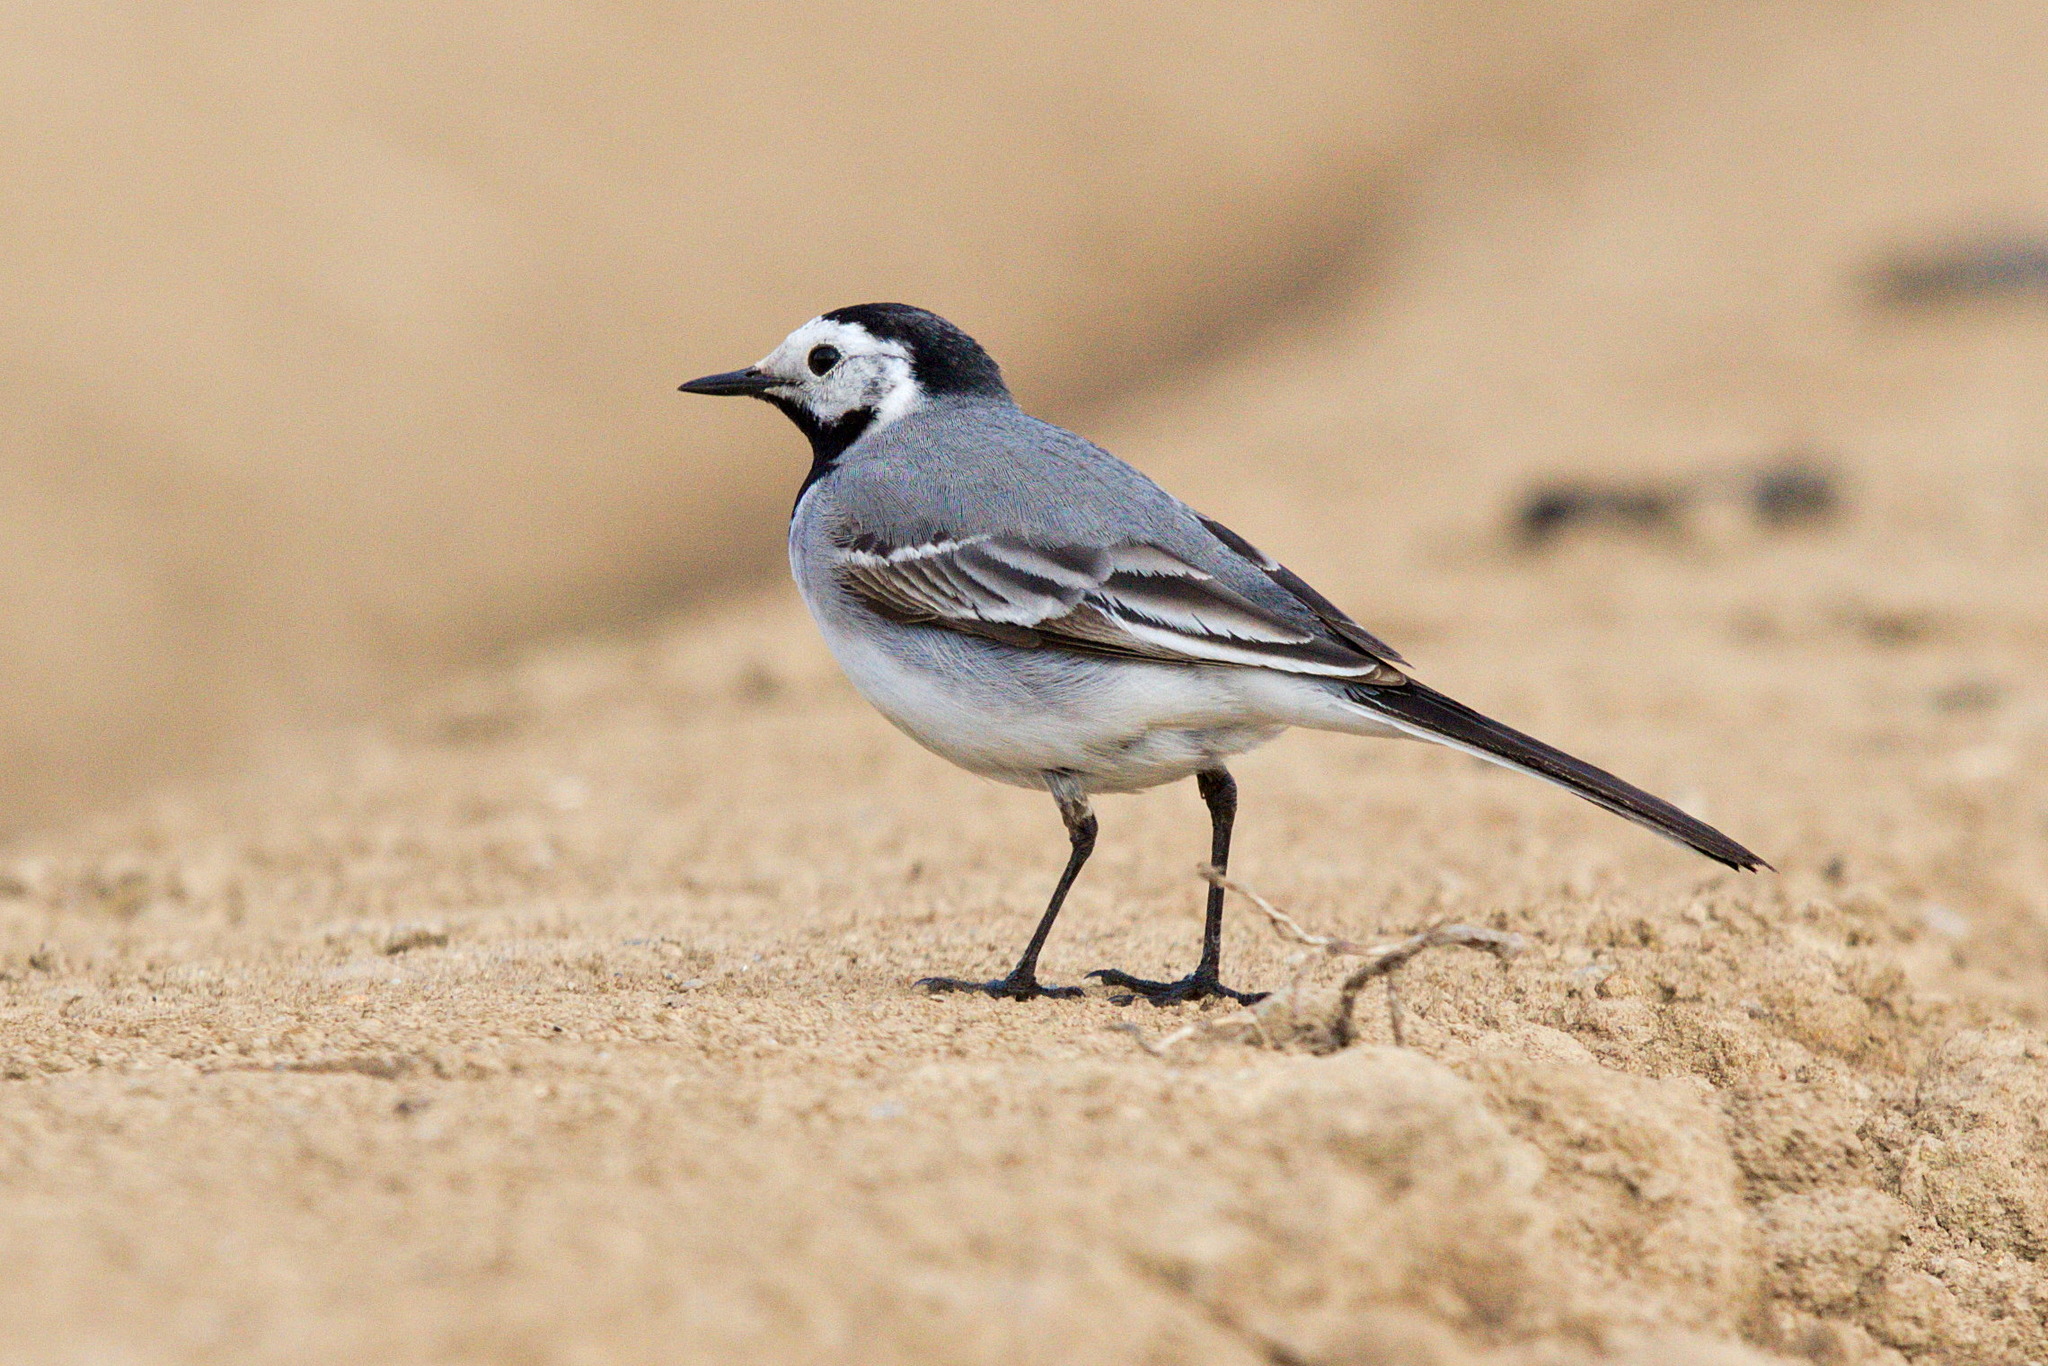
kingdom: Animalia
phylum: Chordata
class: Aves
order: Passeriformes
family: Motacillidae
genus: Motacilla
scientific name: Motacilla alba
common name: White wagtail
